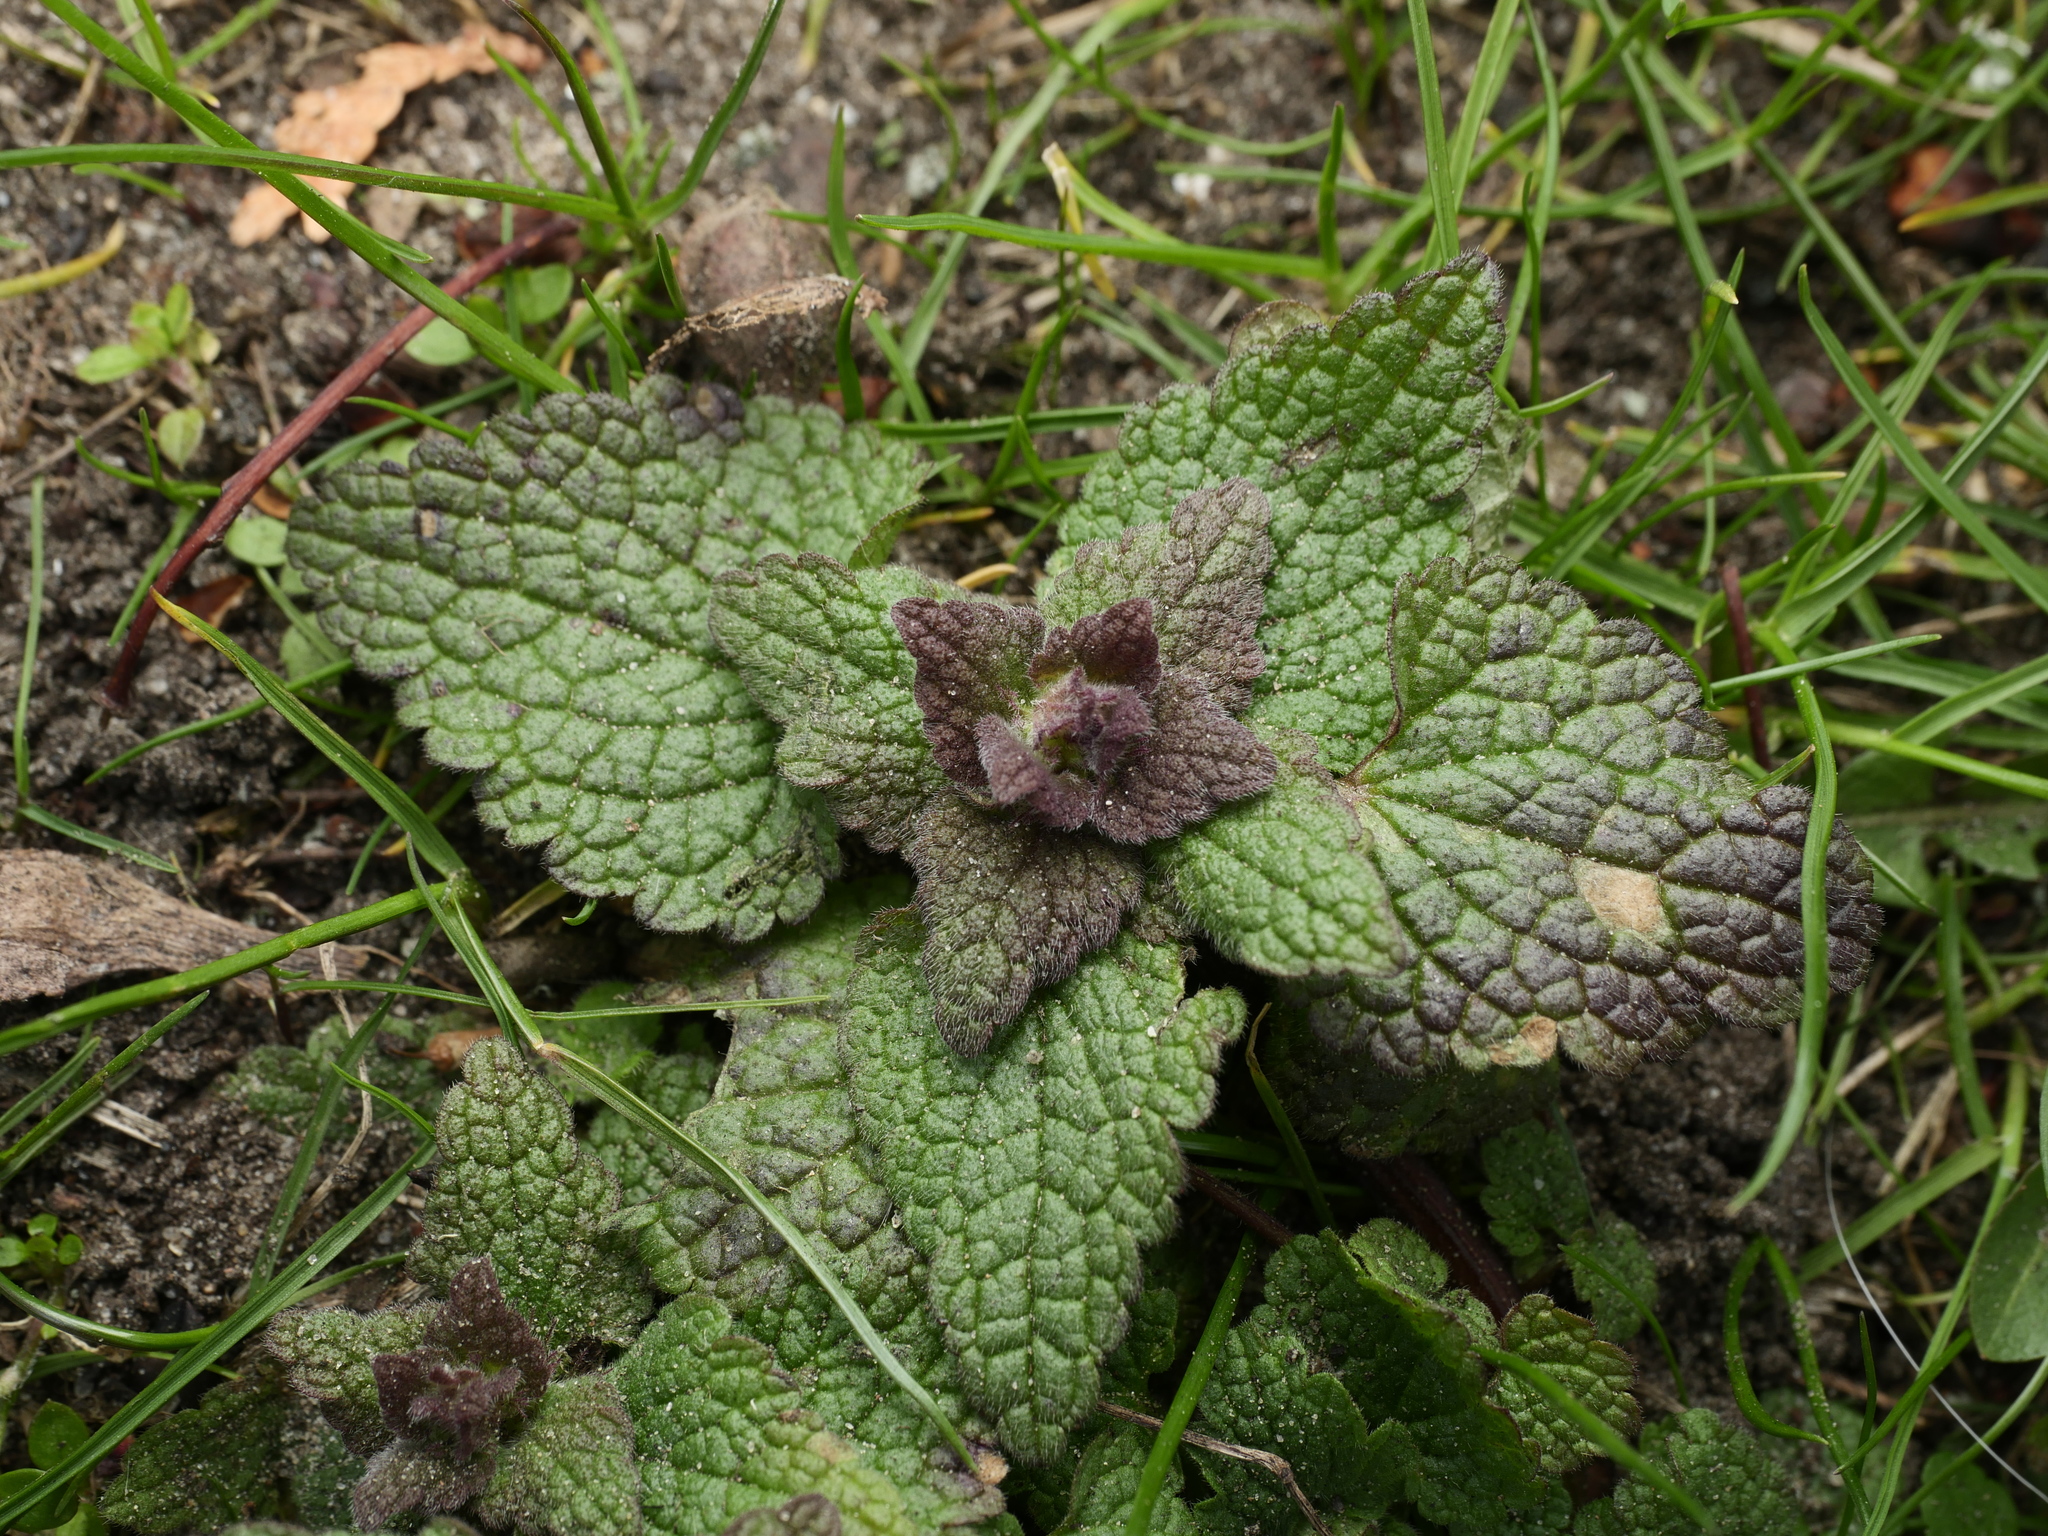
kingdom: Plantae
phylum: Tracheophyta
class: Magnoliopsida
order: Lamiales
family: Lamiaceae
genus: Lamium
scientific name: Lamium purpureum
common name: Red dead-nettle
